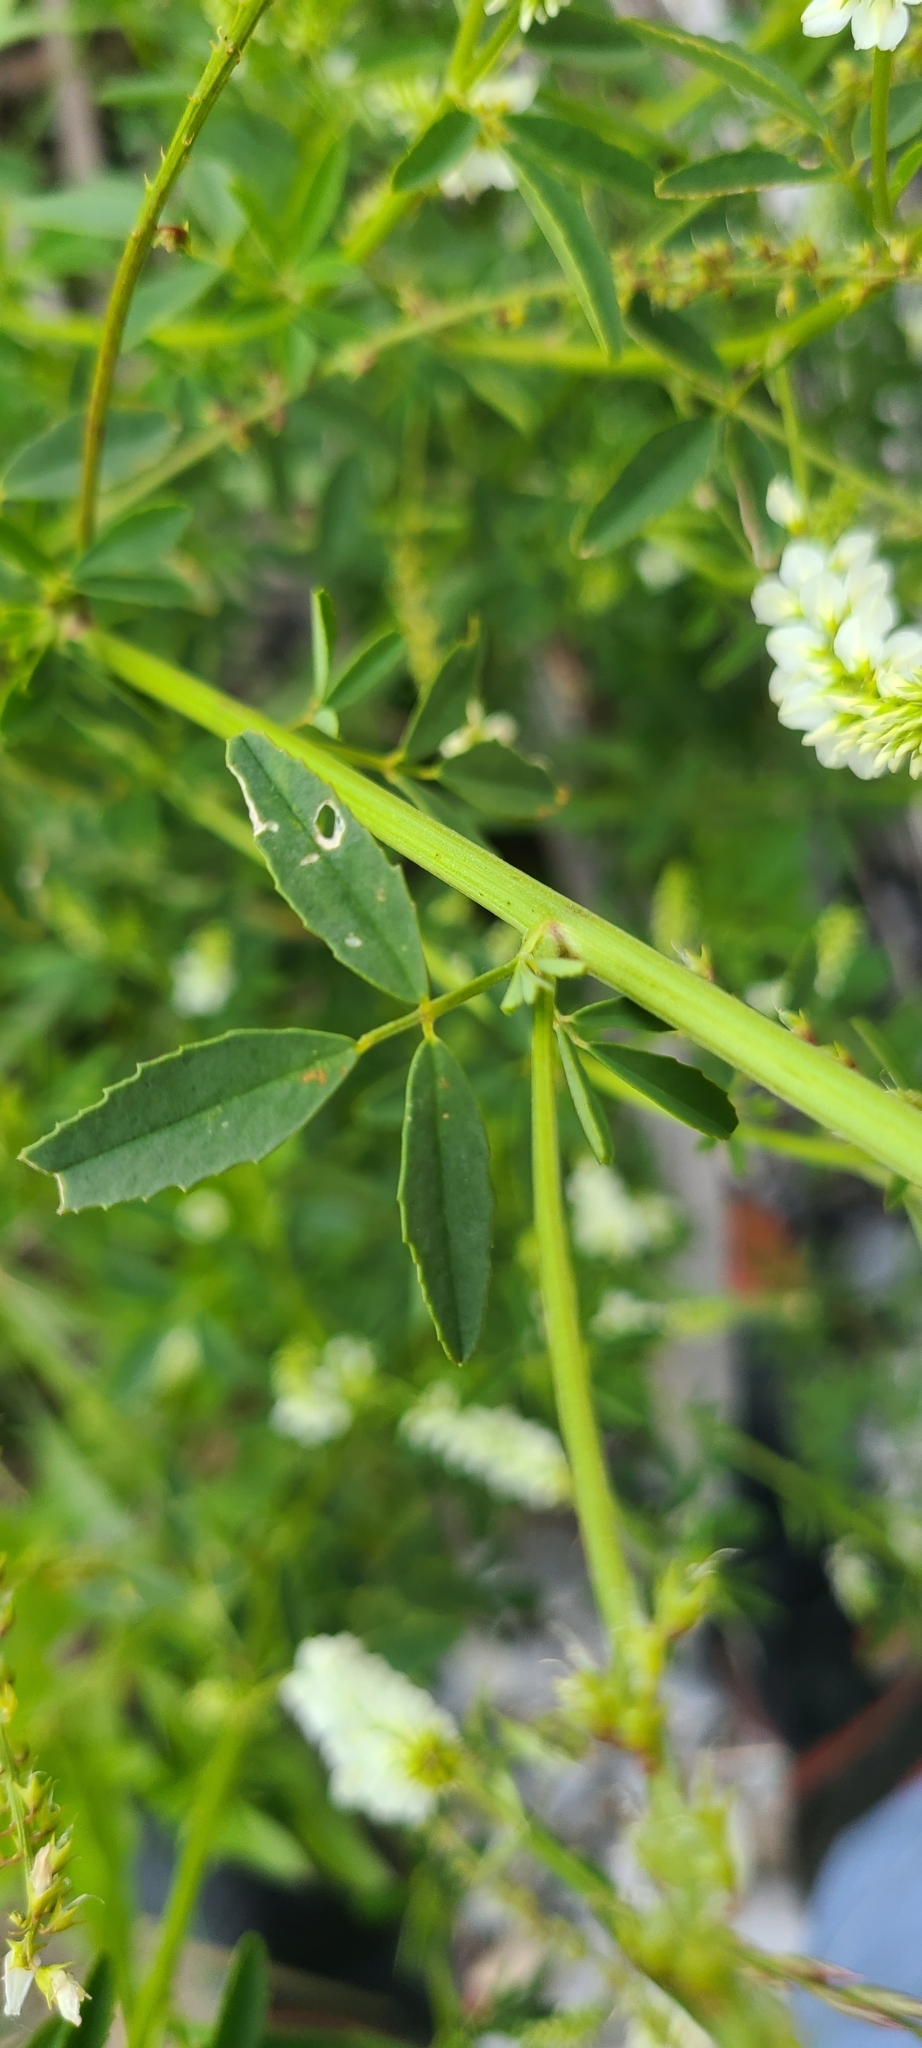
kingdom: Plantae
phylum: Tracheophyta
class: Magnoliopsida
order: Fabales
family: Fabaceae
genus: Melilotus
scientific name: Melilotus albus
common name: White melilot
